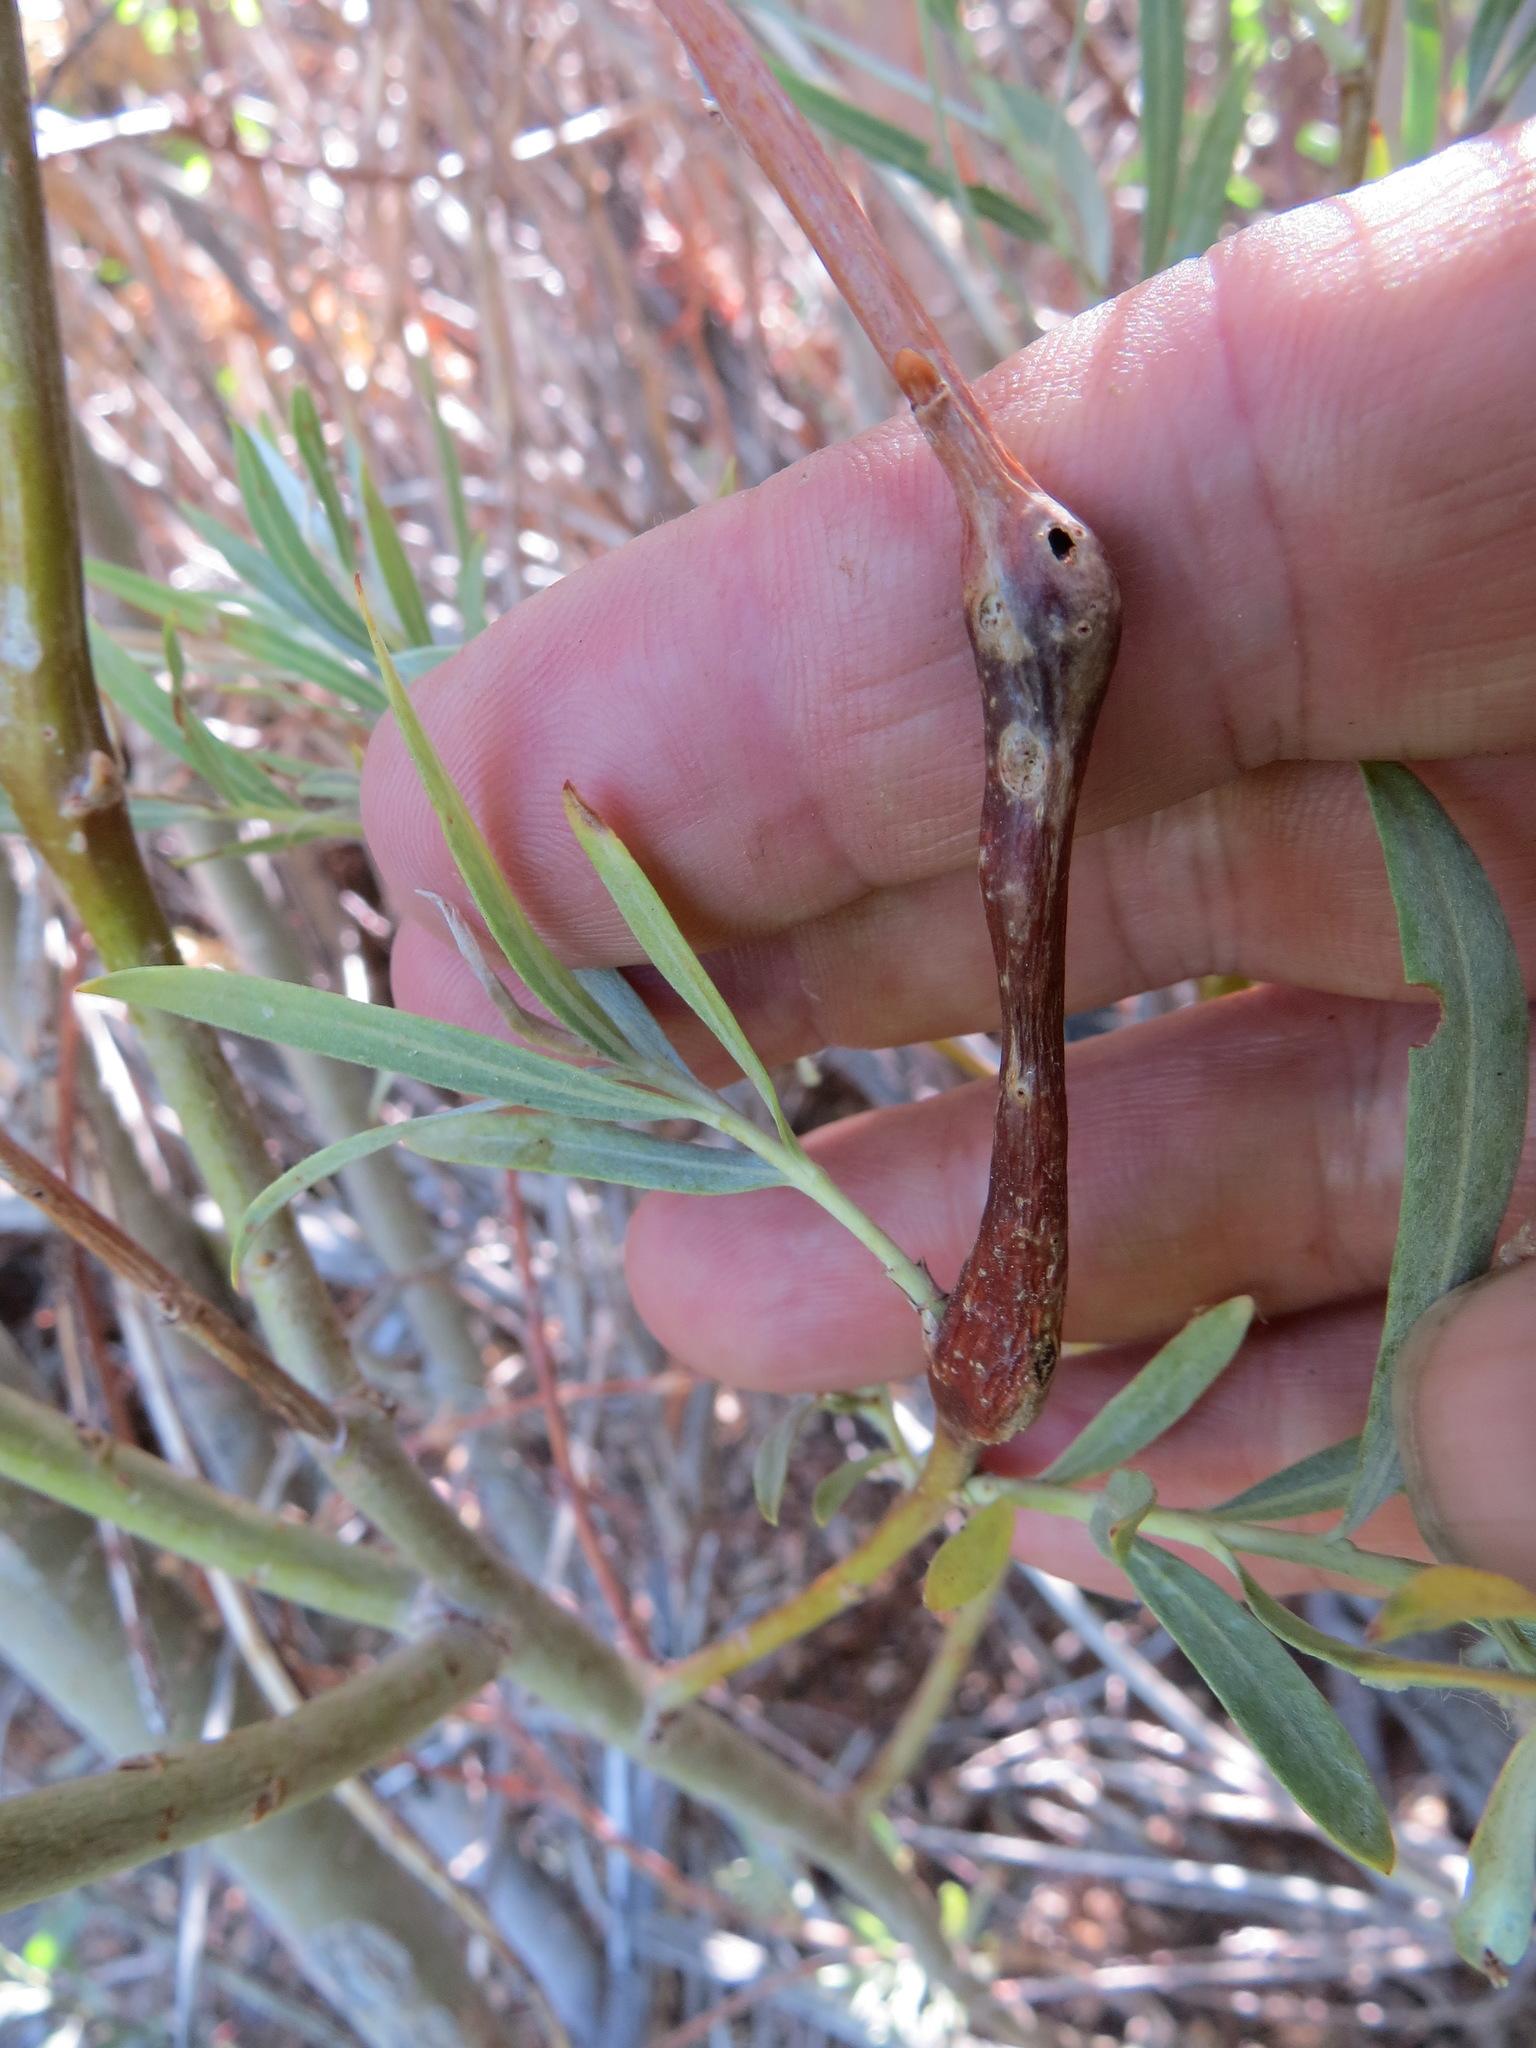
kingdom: Animalia
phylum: Arthropoda
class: Insecta
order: Hymenoptera
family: Tenthredinidae
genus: Euura
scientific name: Euura
